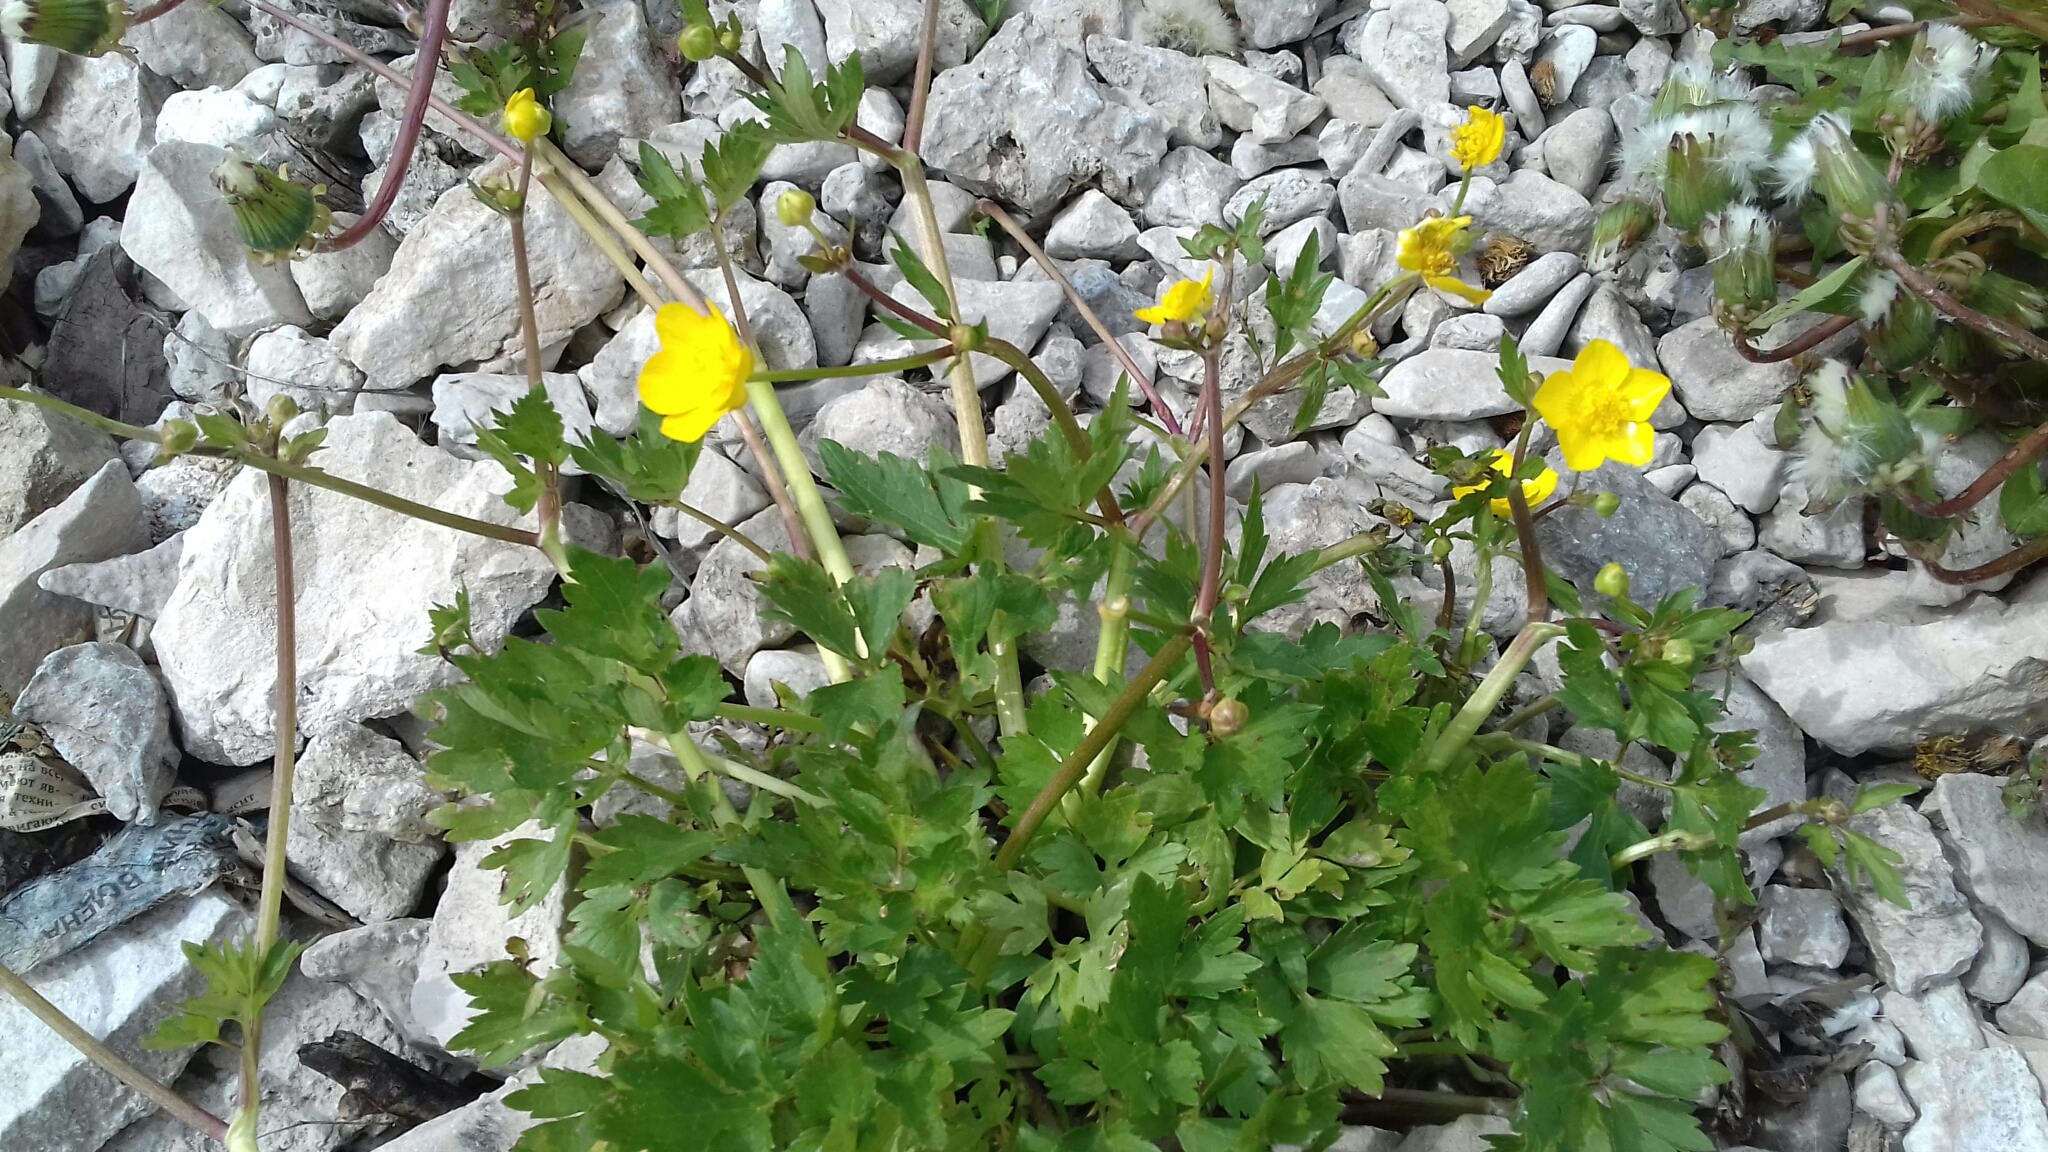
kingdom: Plantae
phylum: Tracheophyta
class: Magnoliopsida
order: Ranunculales
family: Ranunculaceae
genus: Ranunculus
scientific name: Ranunculus repens
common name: Creeping buttercup
